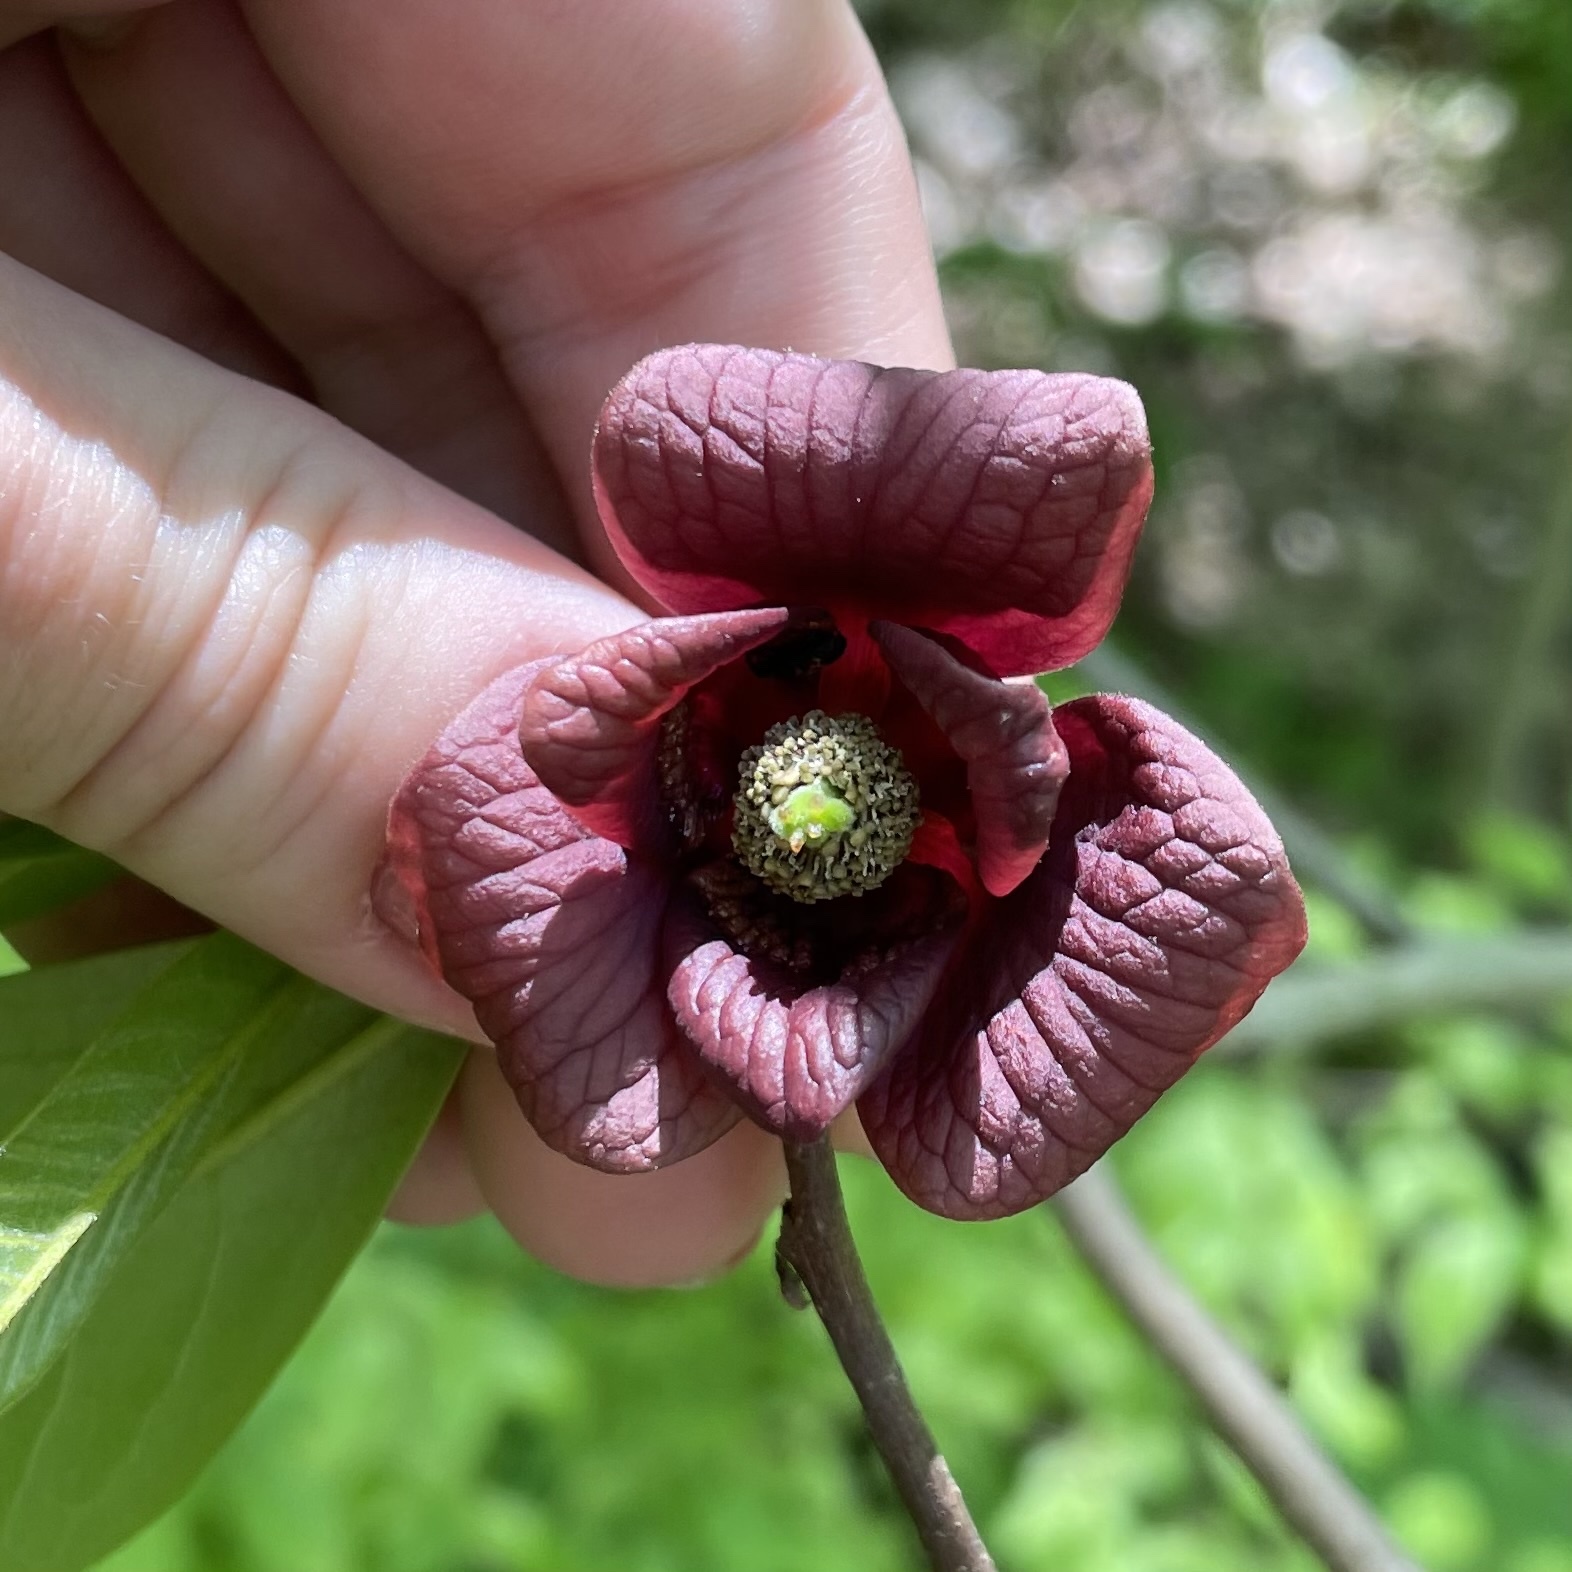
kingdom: Plantae
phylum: Tracheophyta
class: Magnoliopsida
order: Magnoliales
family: Annonaceae
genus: Asimina
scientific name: Asimina triloba
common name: Dog-banana
